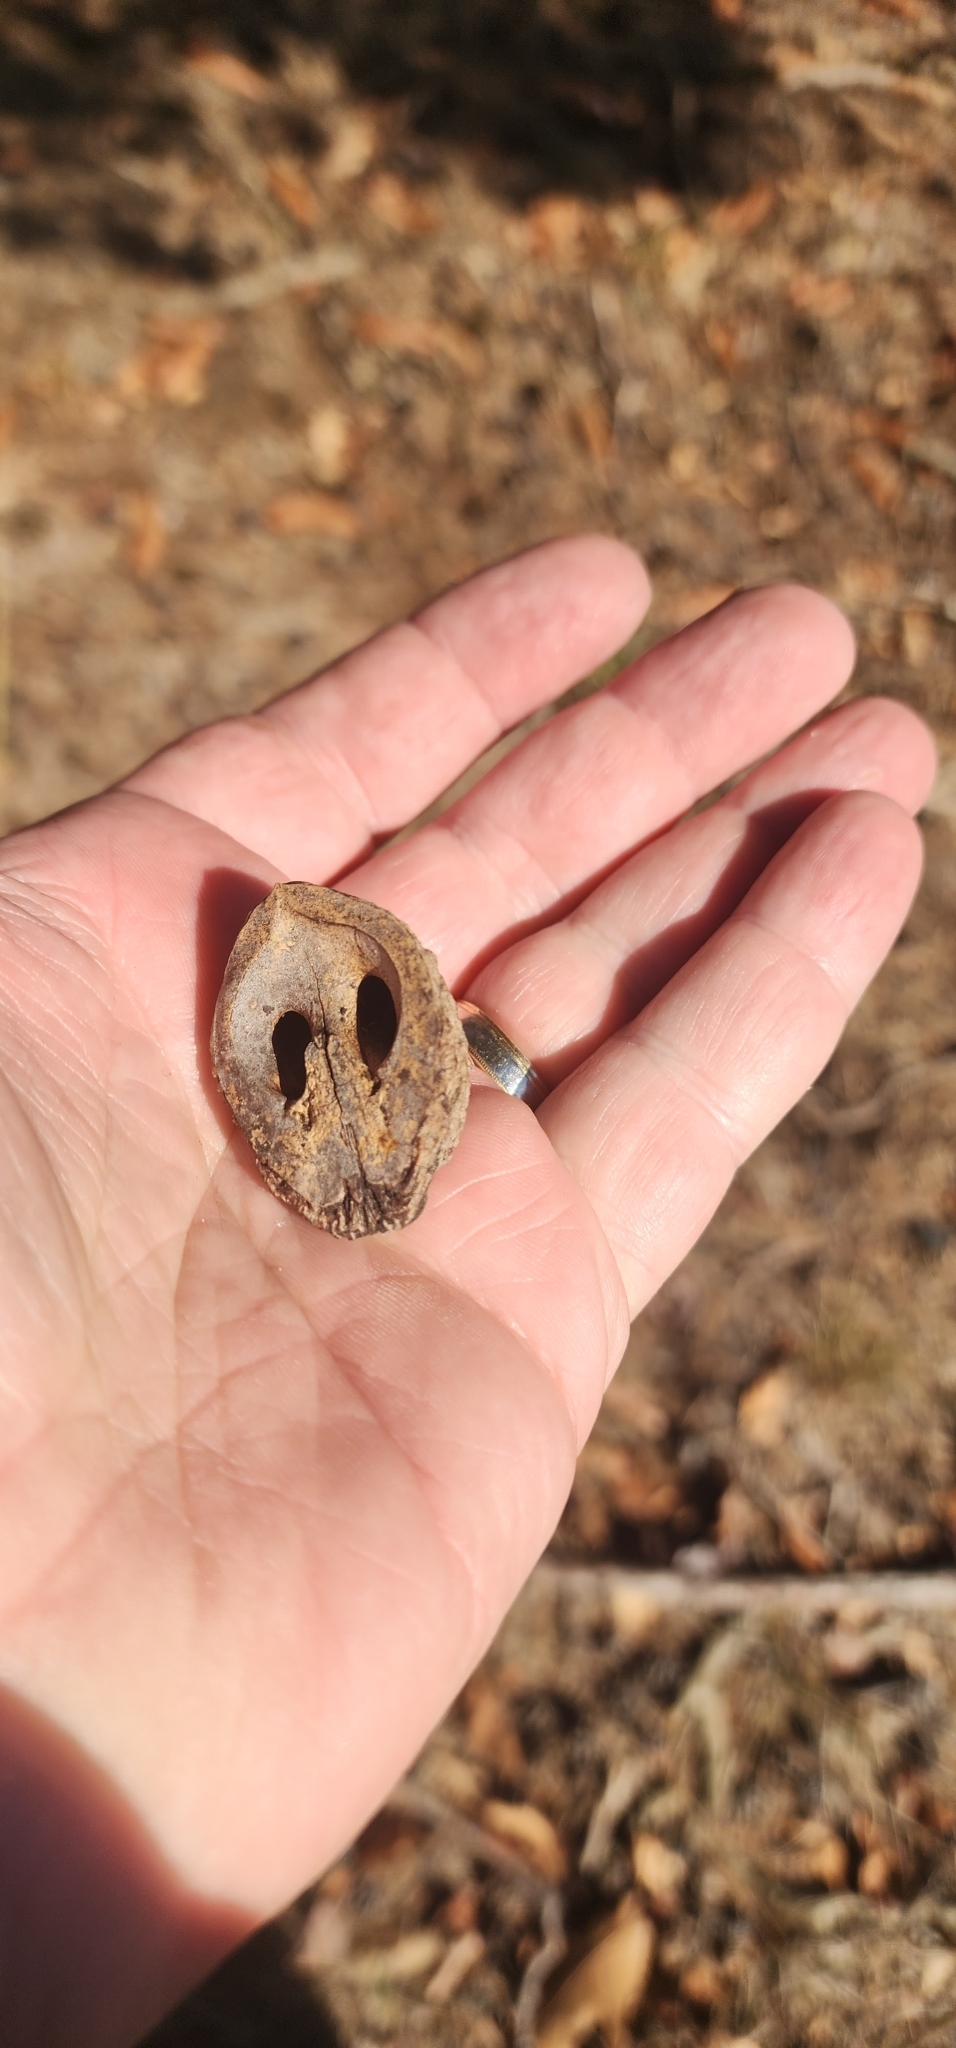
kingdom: Plantae
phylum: Tracheophyta
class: Magnoliopsida
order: Fagales
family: Juglandaceae
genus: Juglans
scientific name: Juglans nigra
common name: Black walnut
